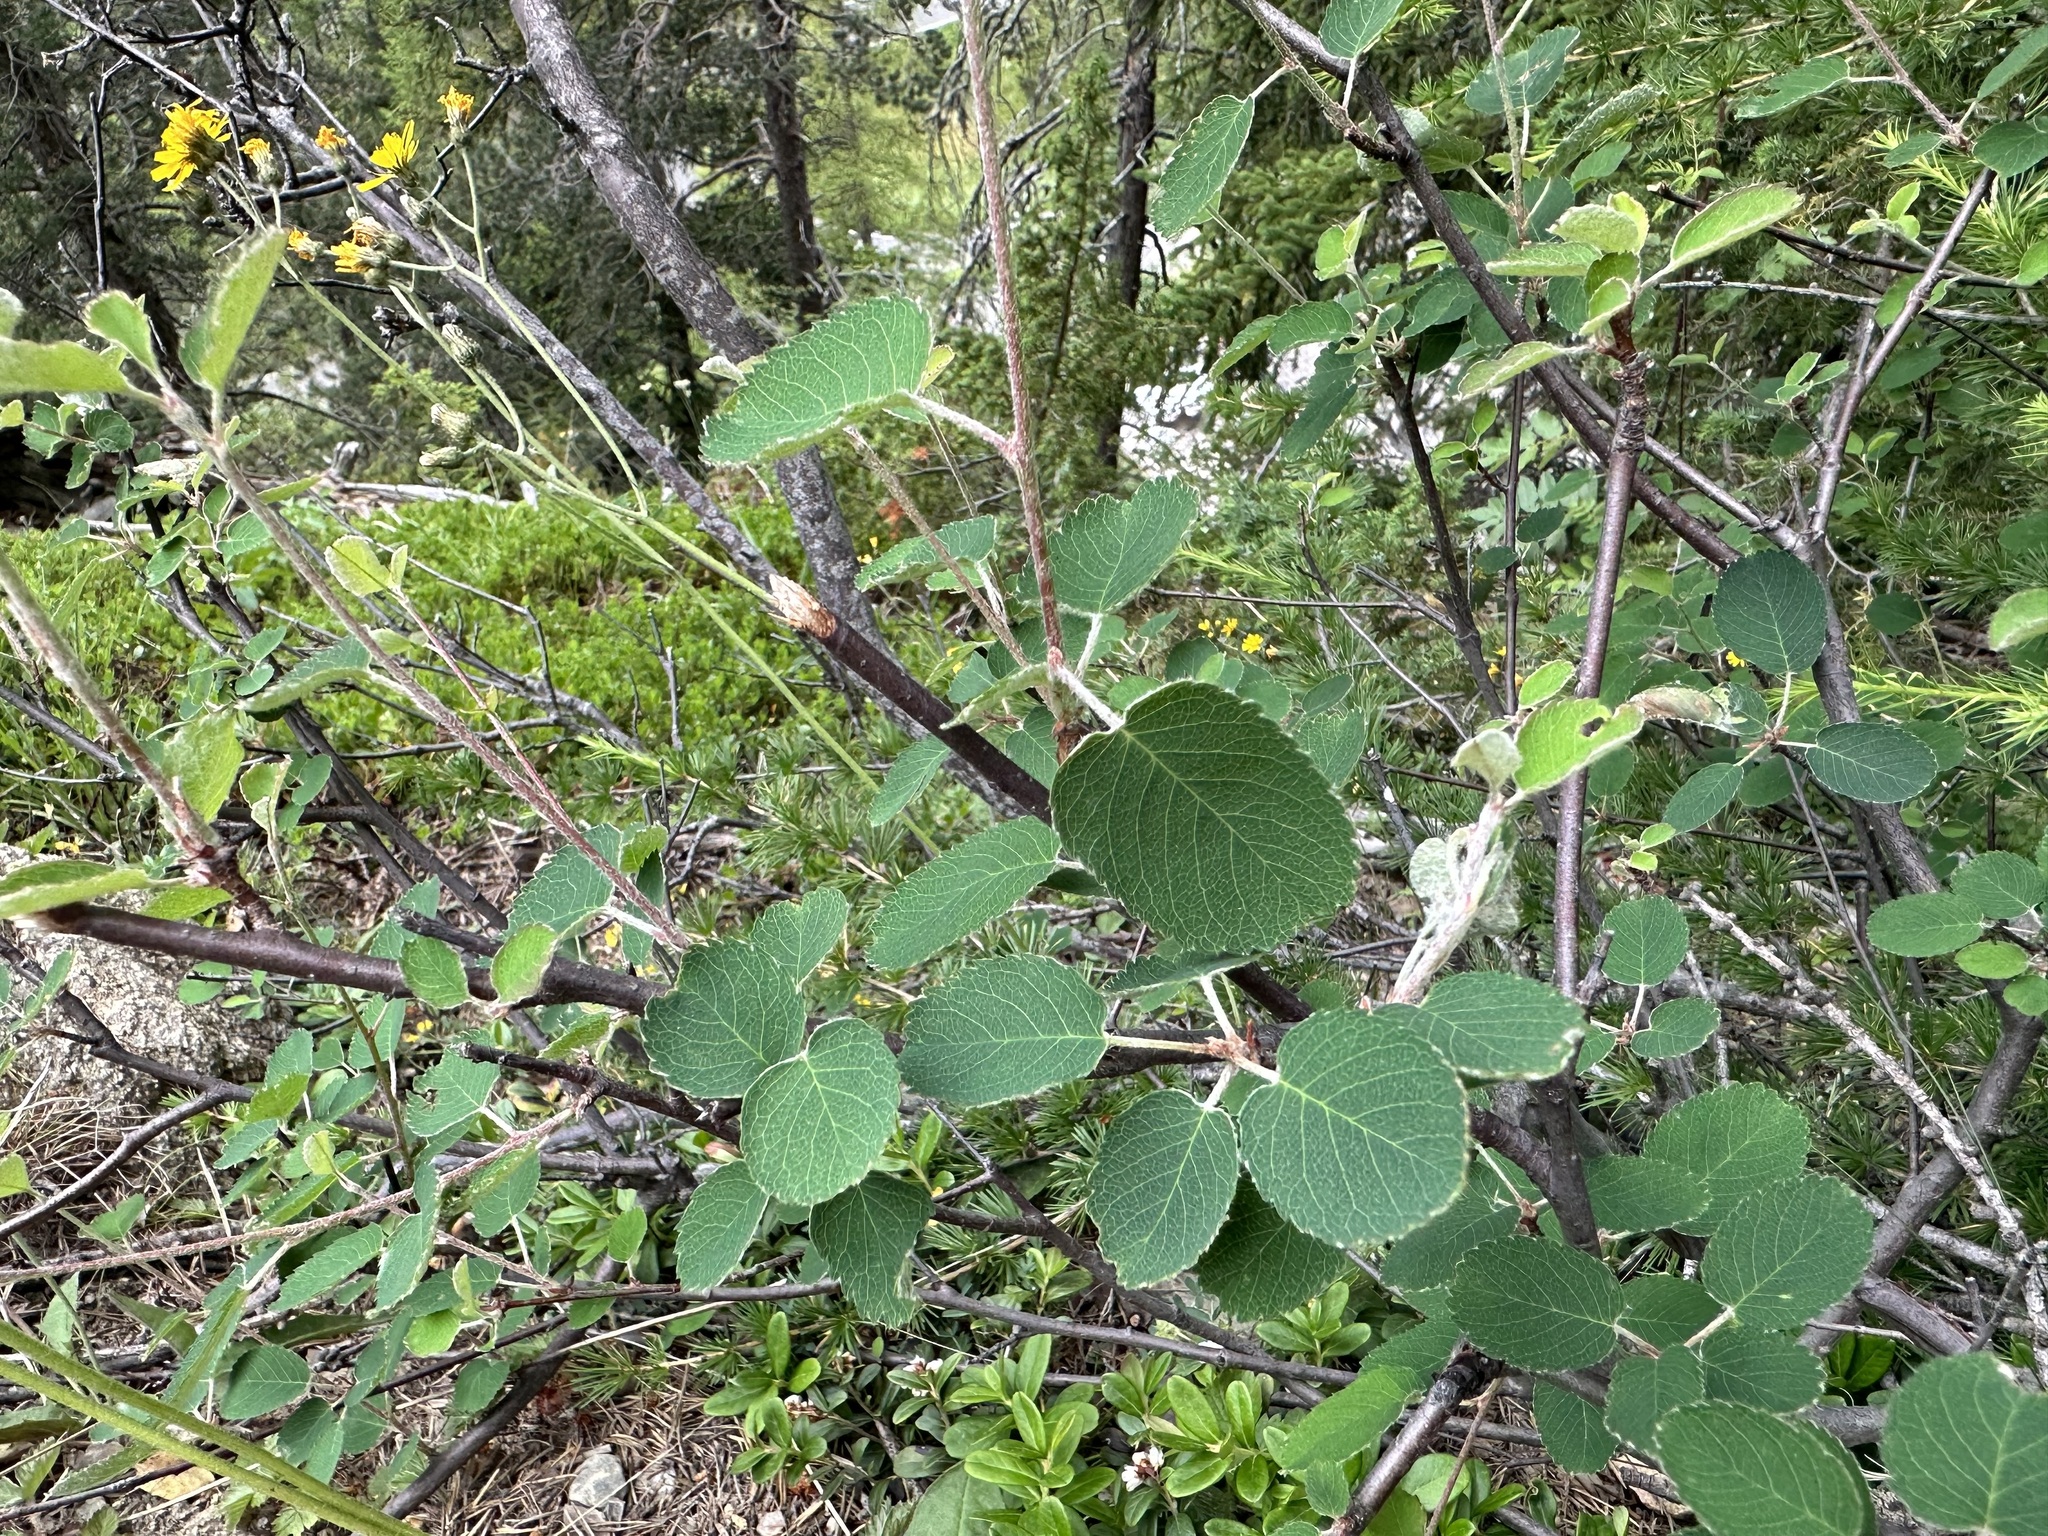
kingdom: Plantae
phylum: Tracheophyta
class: Magnoliopsida
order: Rosales
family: Rosaceae
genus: Amelanchier
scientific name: Amelanchier ovalis
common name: Serviceberry
